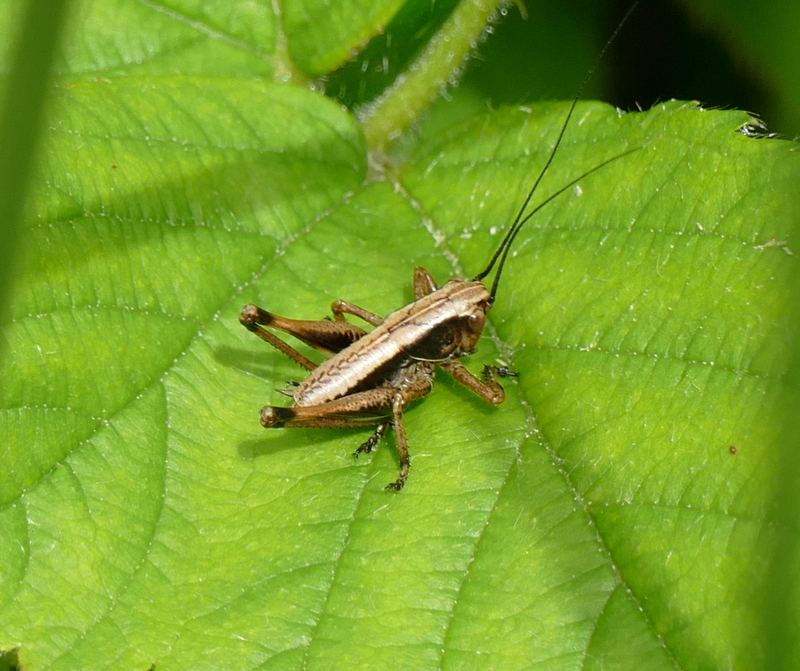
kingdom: Animalia
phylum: Arthropoda
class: Insecta
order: Orthoptera
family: Tettigoniidae
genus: Pholidoptera
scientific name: Pholidoptera griseoaptera
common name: Dark bush-cricket
